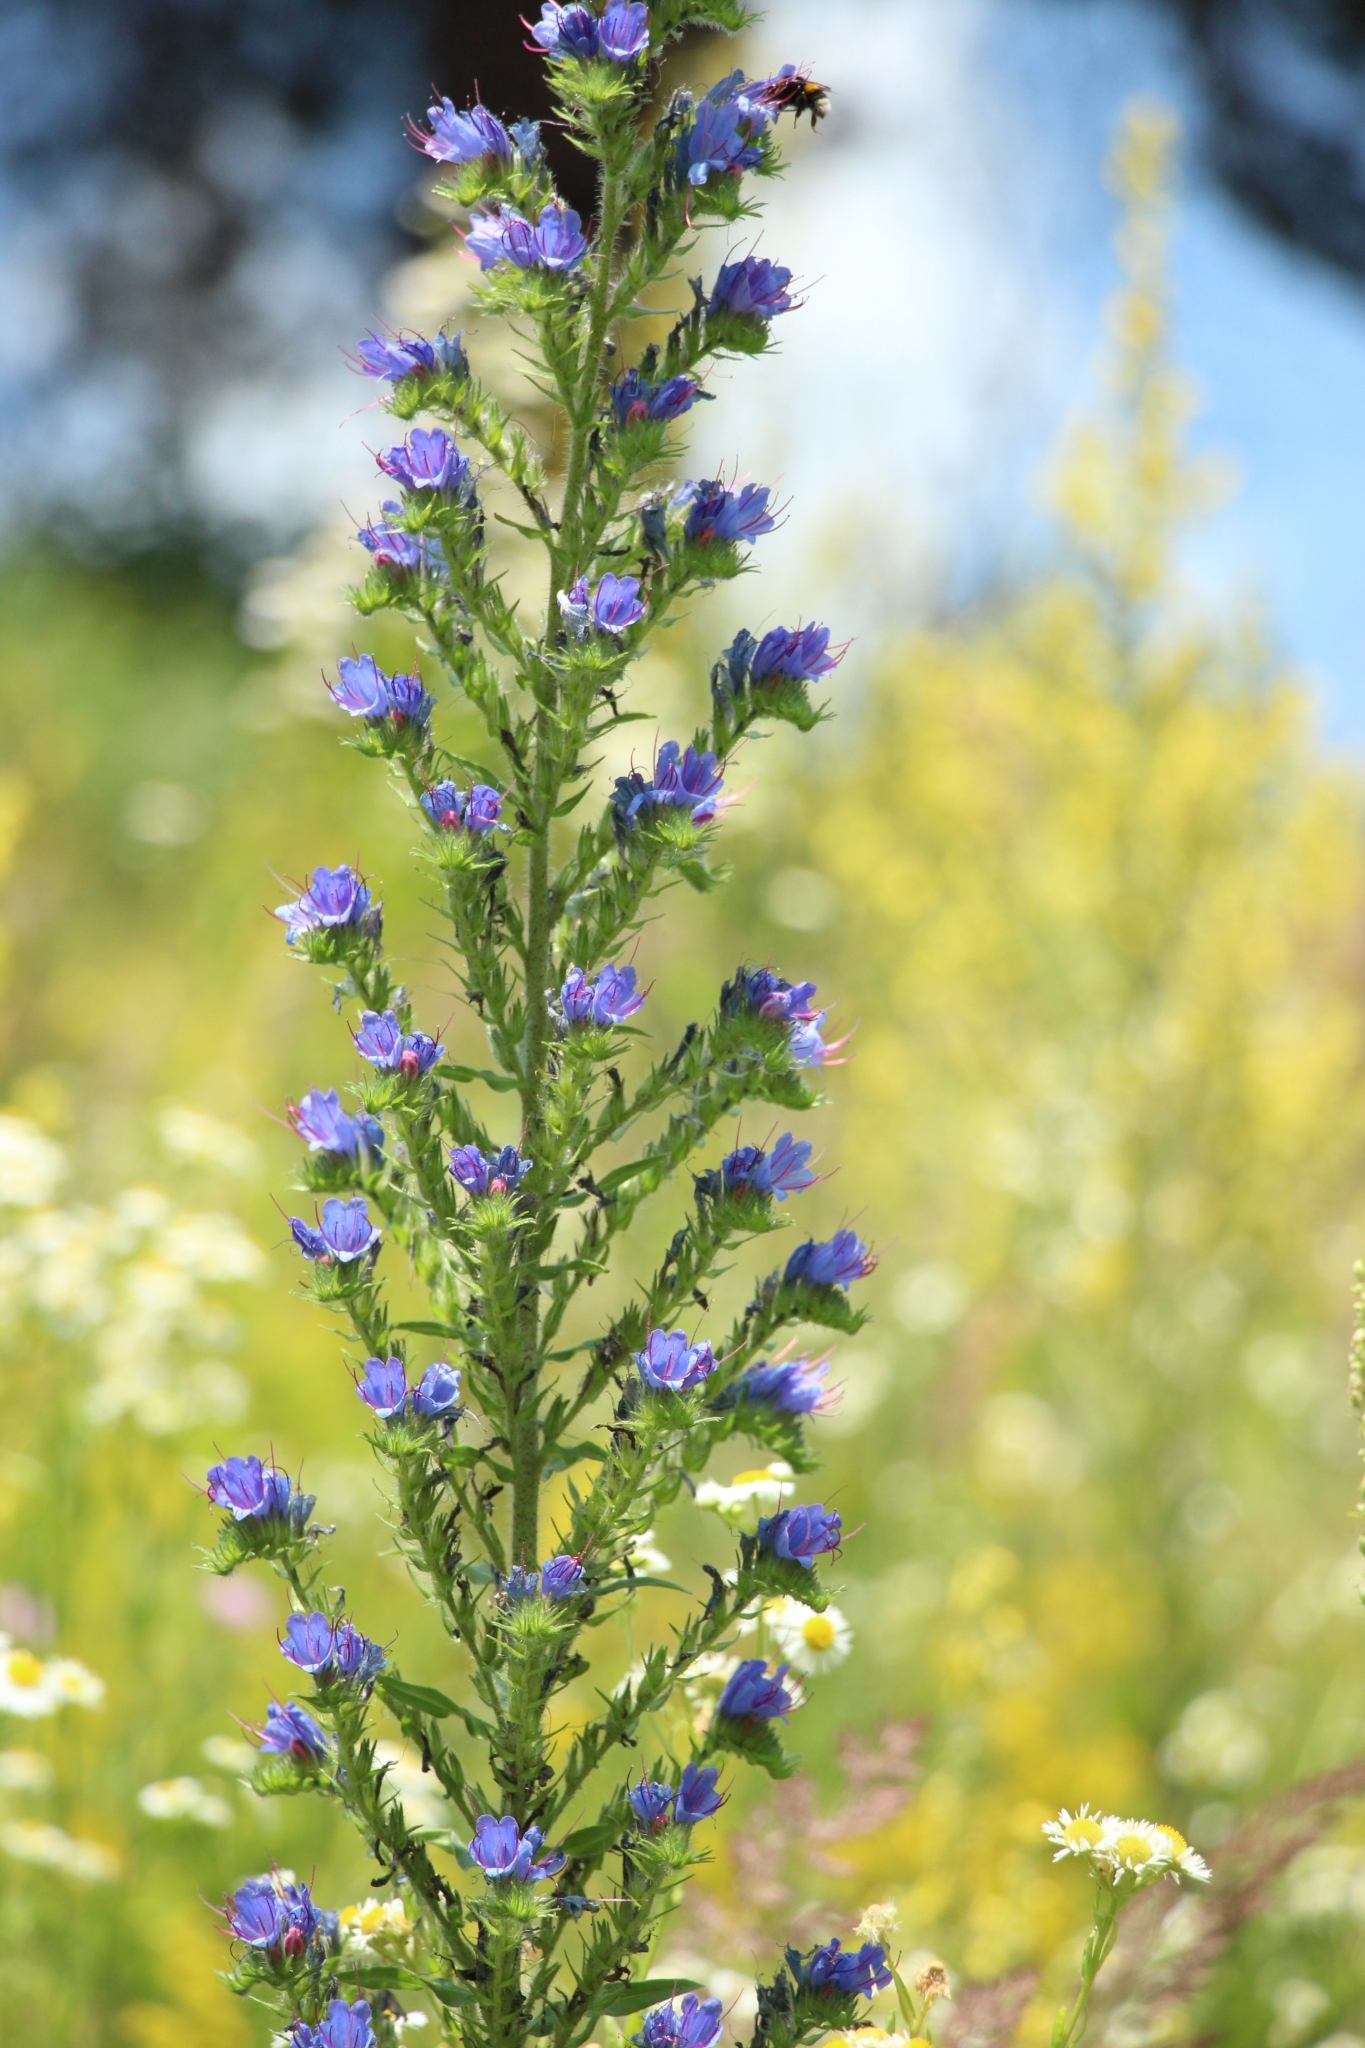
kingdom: Plantae
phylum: Tracheophyta
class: Magnoliopsida
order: Boraginales
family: Boraginaceae
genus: Echium
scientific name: Echium vulgare
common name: Common viper's bugloss
